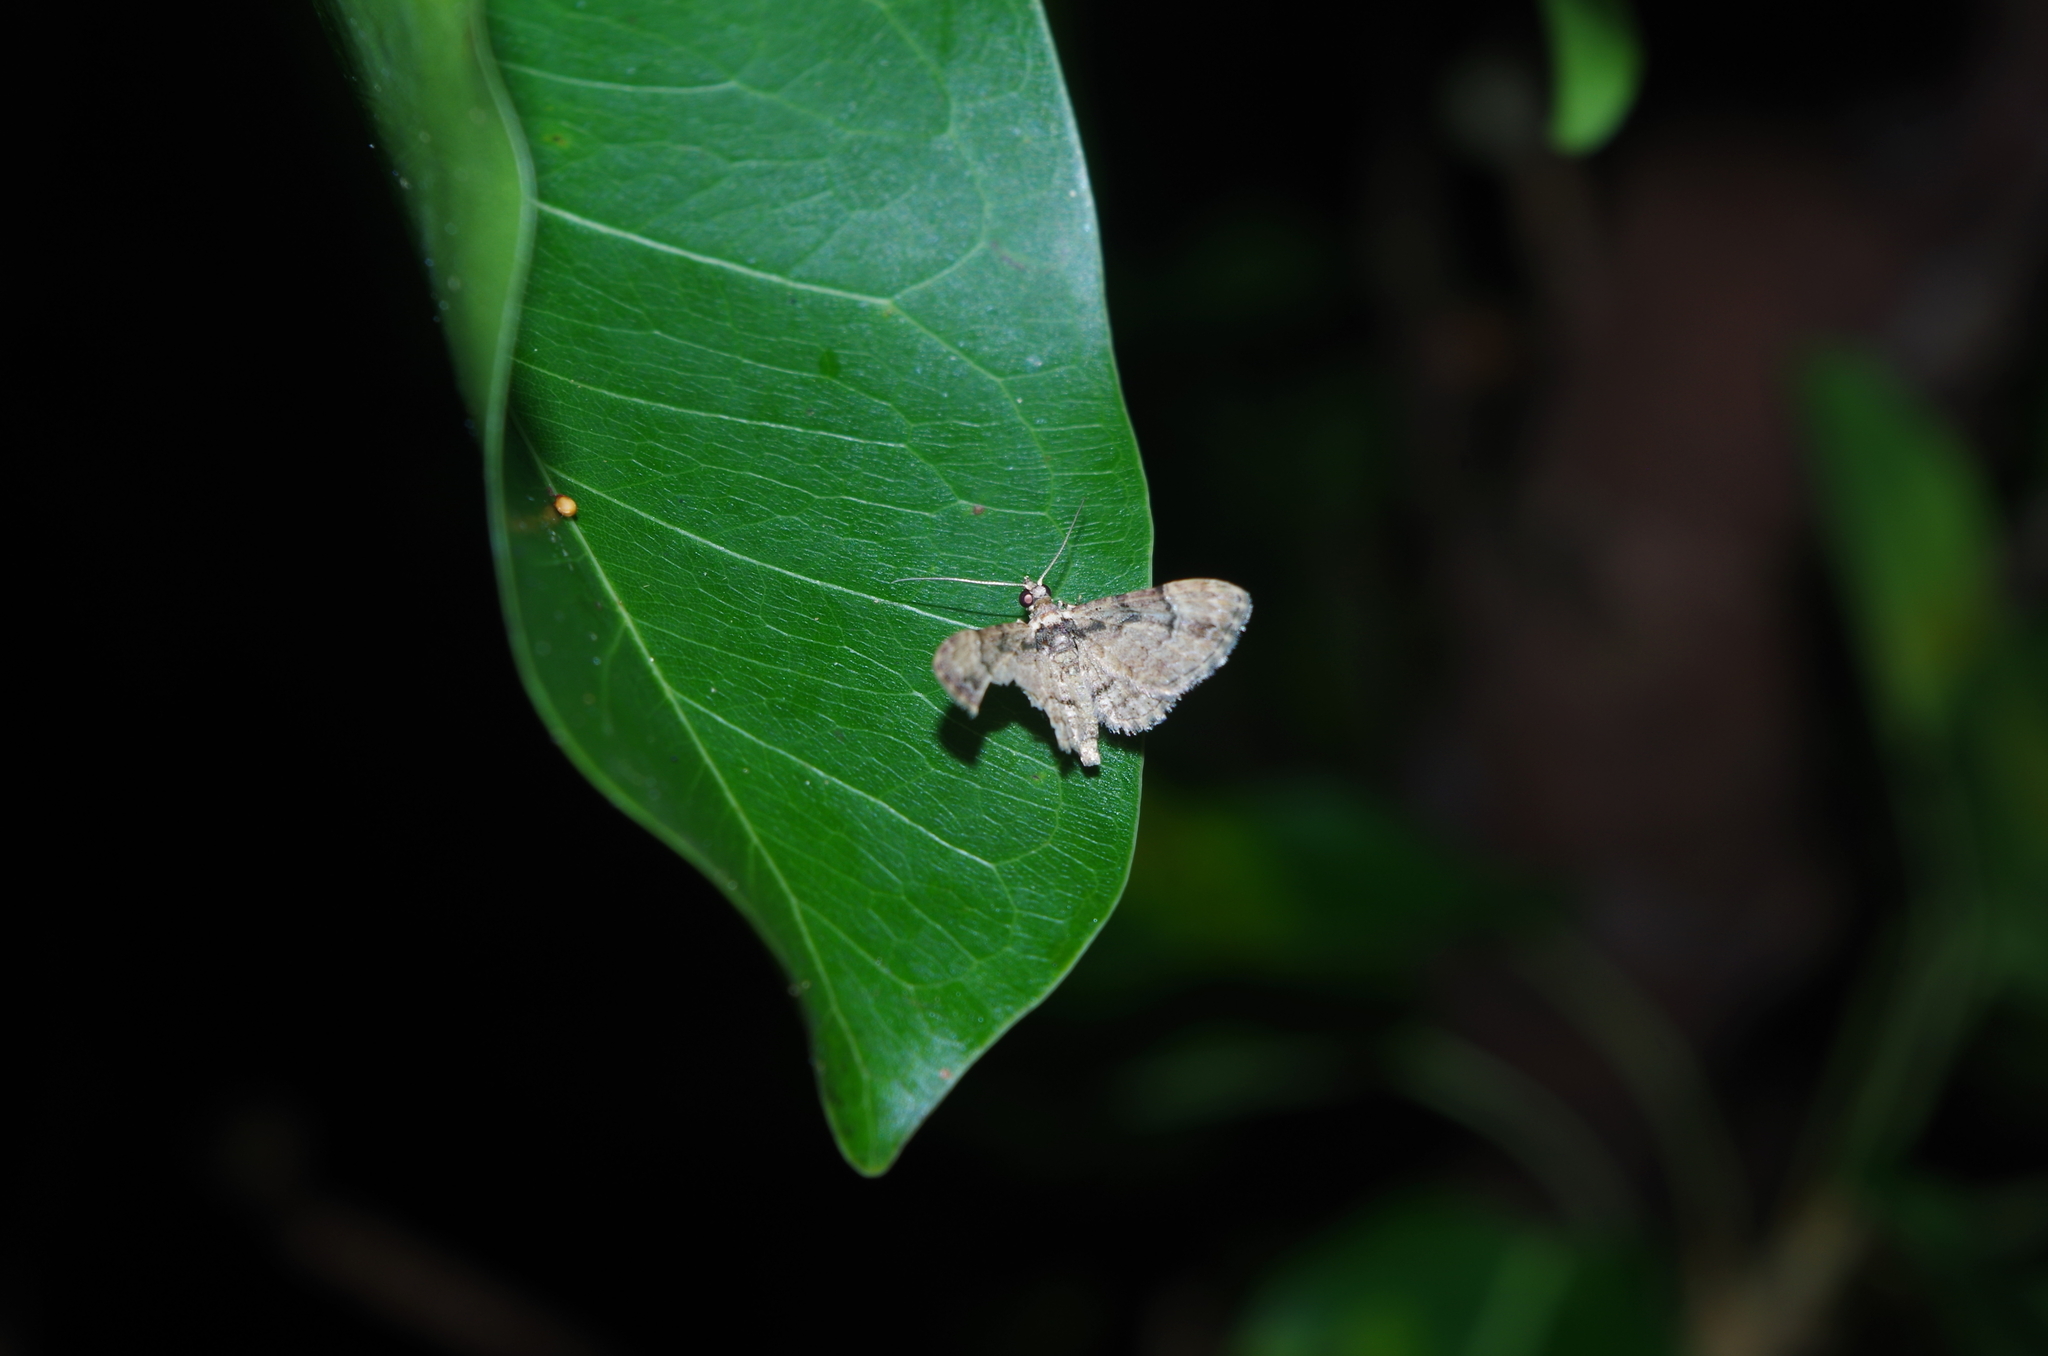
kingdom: Animalia
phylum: Arthropoda
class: Insecta
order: Lepidoptera
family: Geometridae
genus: Gymnoscelis
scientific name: Gymnoscelis tristrigosa
